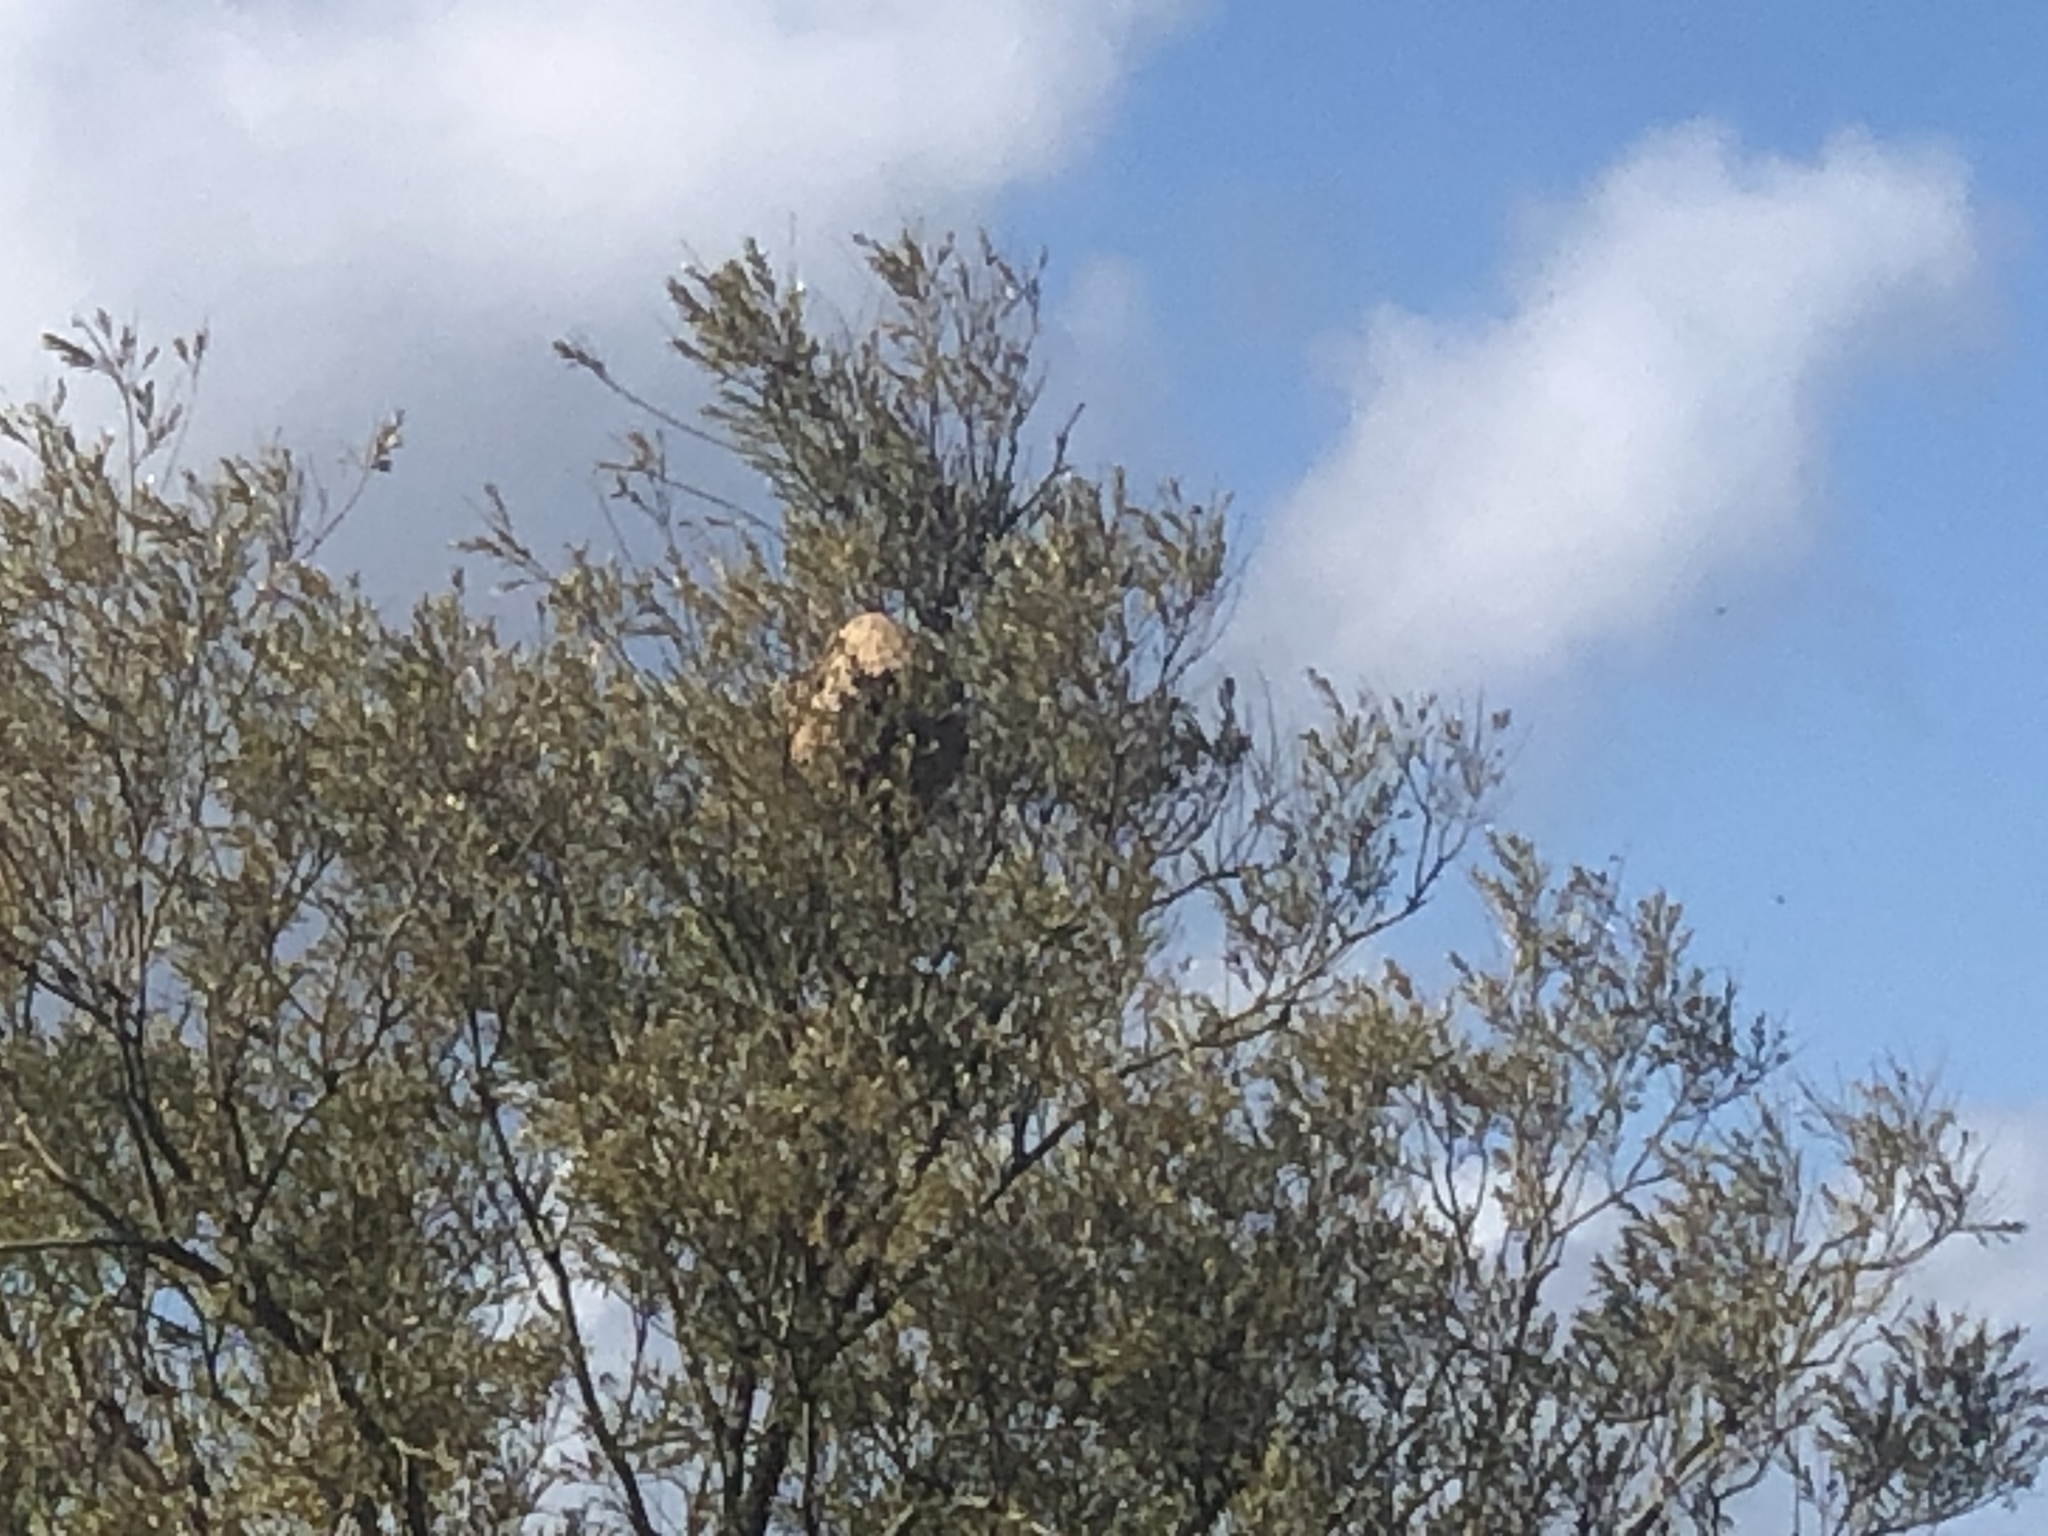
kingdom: Animalia
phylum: Arthropoda
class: Insecta
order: Hymenoptera
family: Vespidae
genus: Vespa
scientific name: Vespa velutina
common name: Asian hornet
